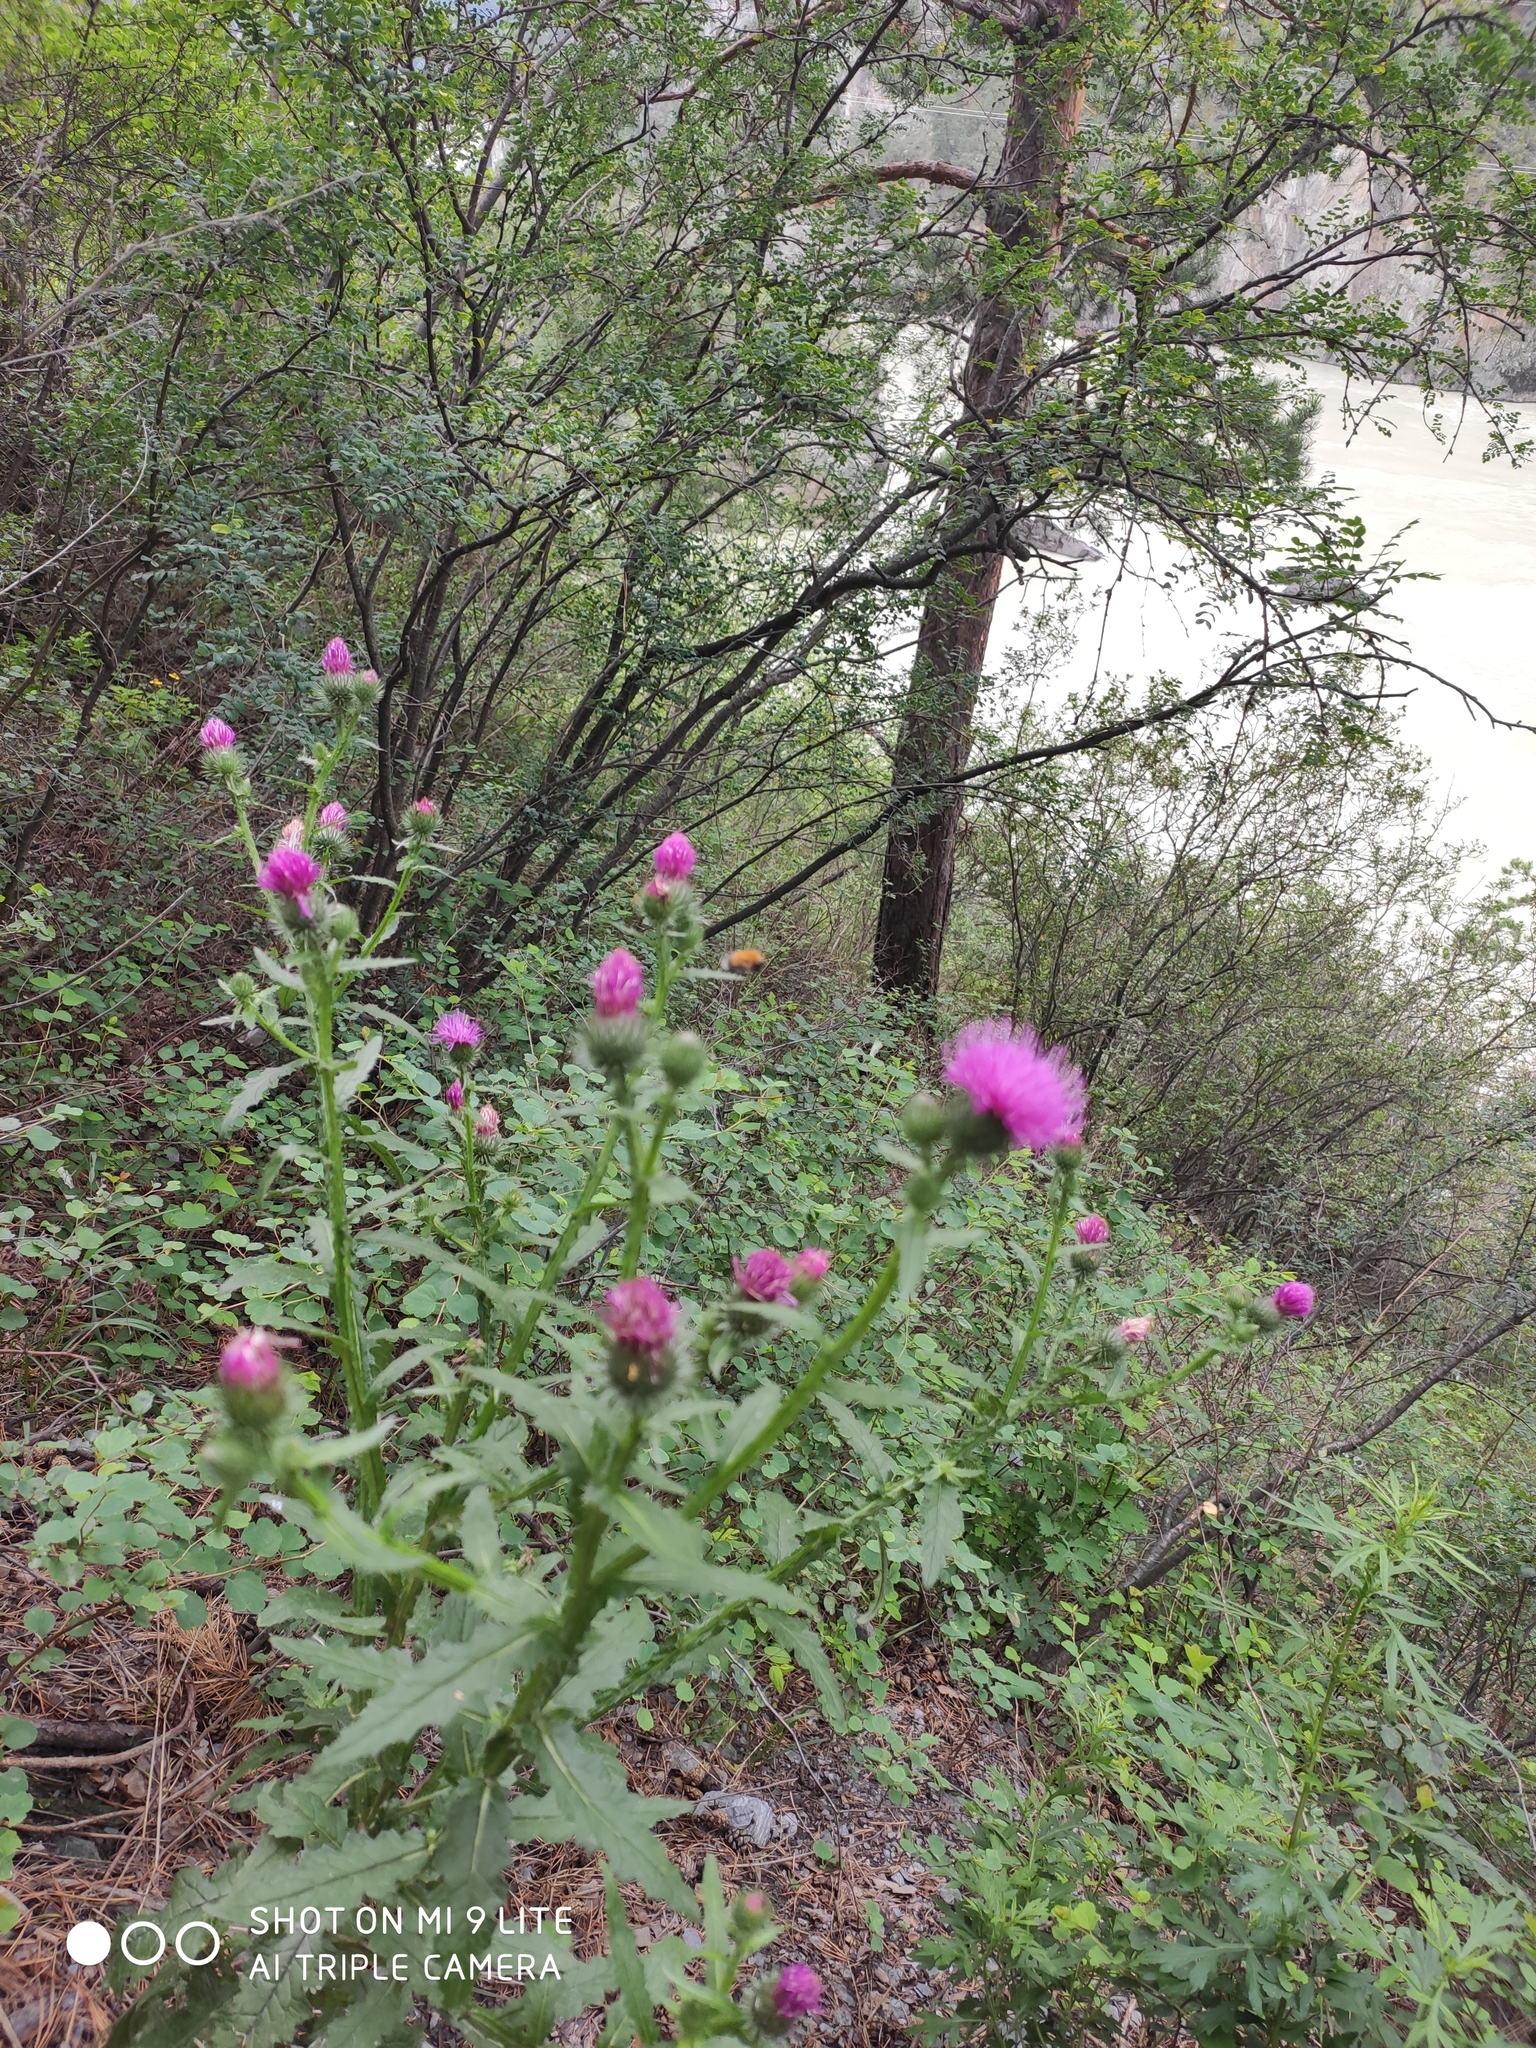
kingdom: Plantae
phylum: Tracheophyta
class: Magnoliopsida
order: Asterales
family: Asteraceae
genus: Carduus
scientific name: Carduus crispus
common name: Welted thistle
